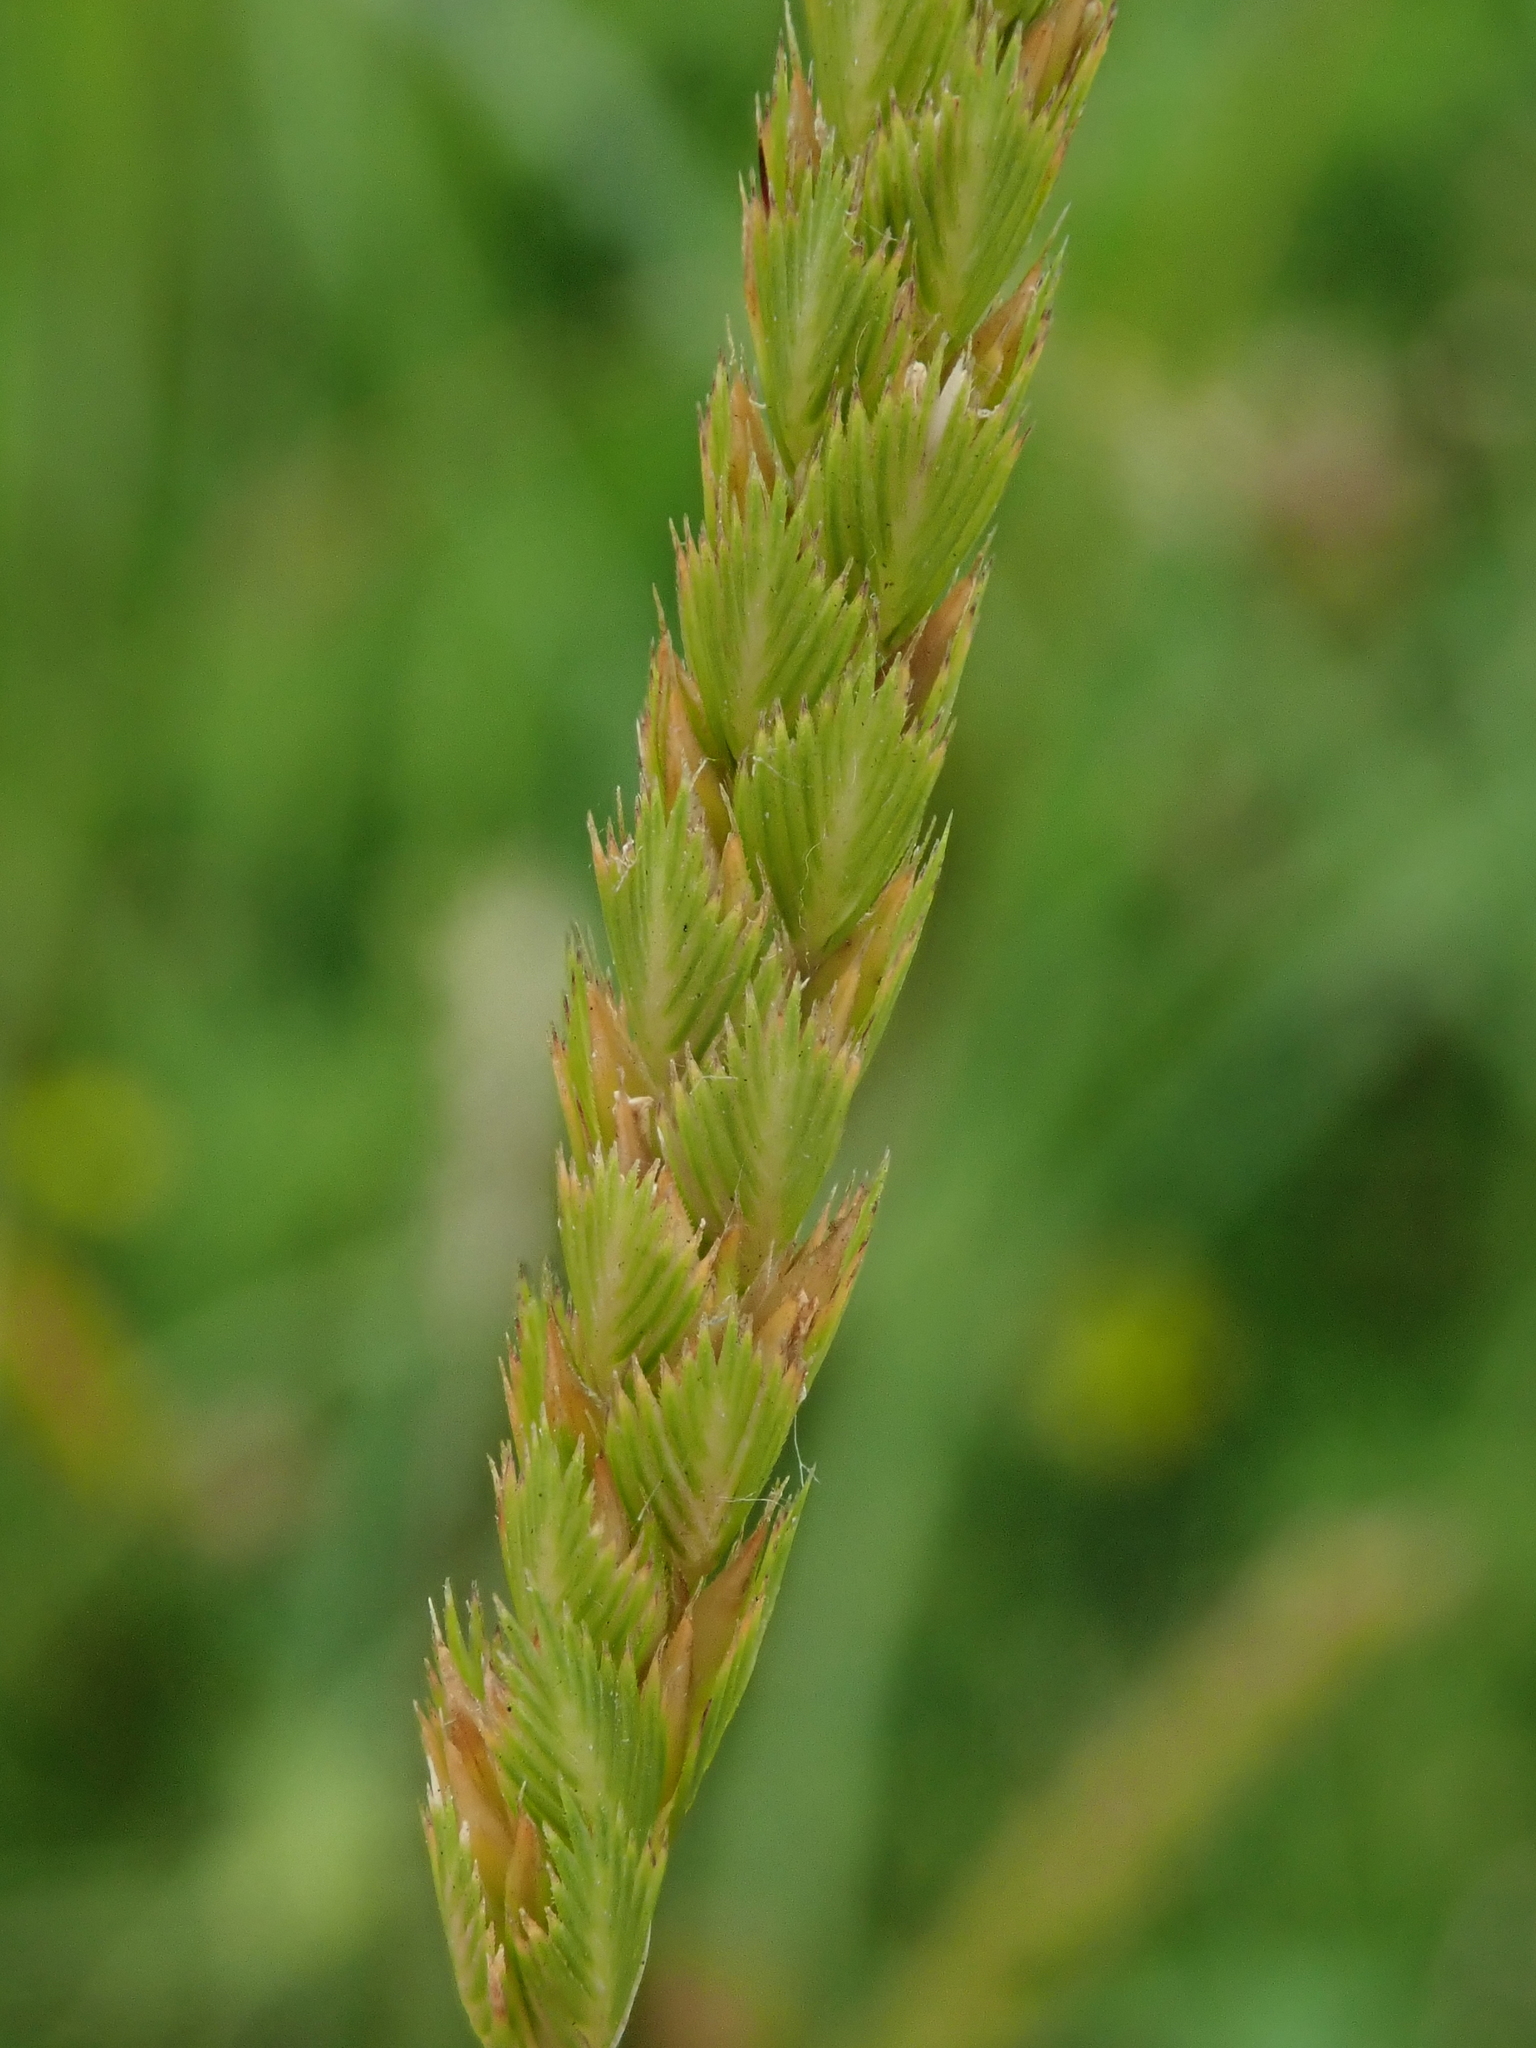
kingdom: Plantae
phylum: Tracheophyta
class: Liliopsida
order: Poales
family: Poaceae
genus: Cynosurus
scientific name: Cynosurus cristatus
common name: Crested dog's-tail
